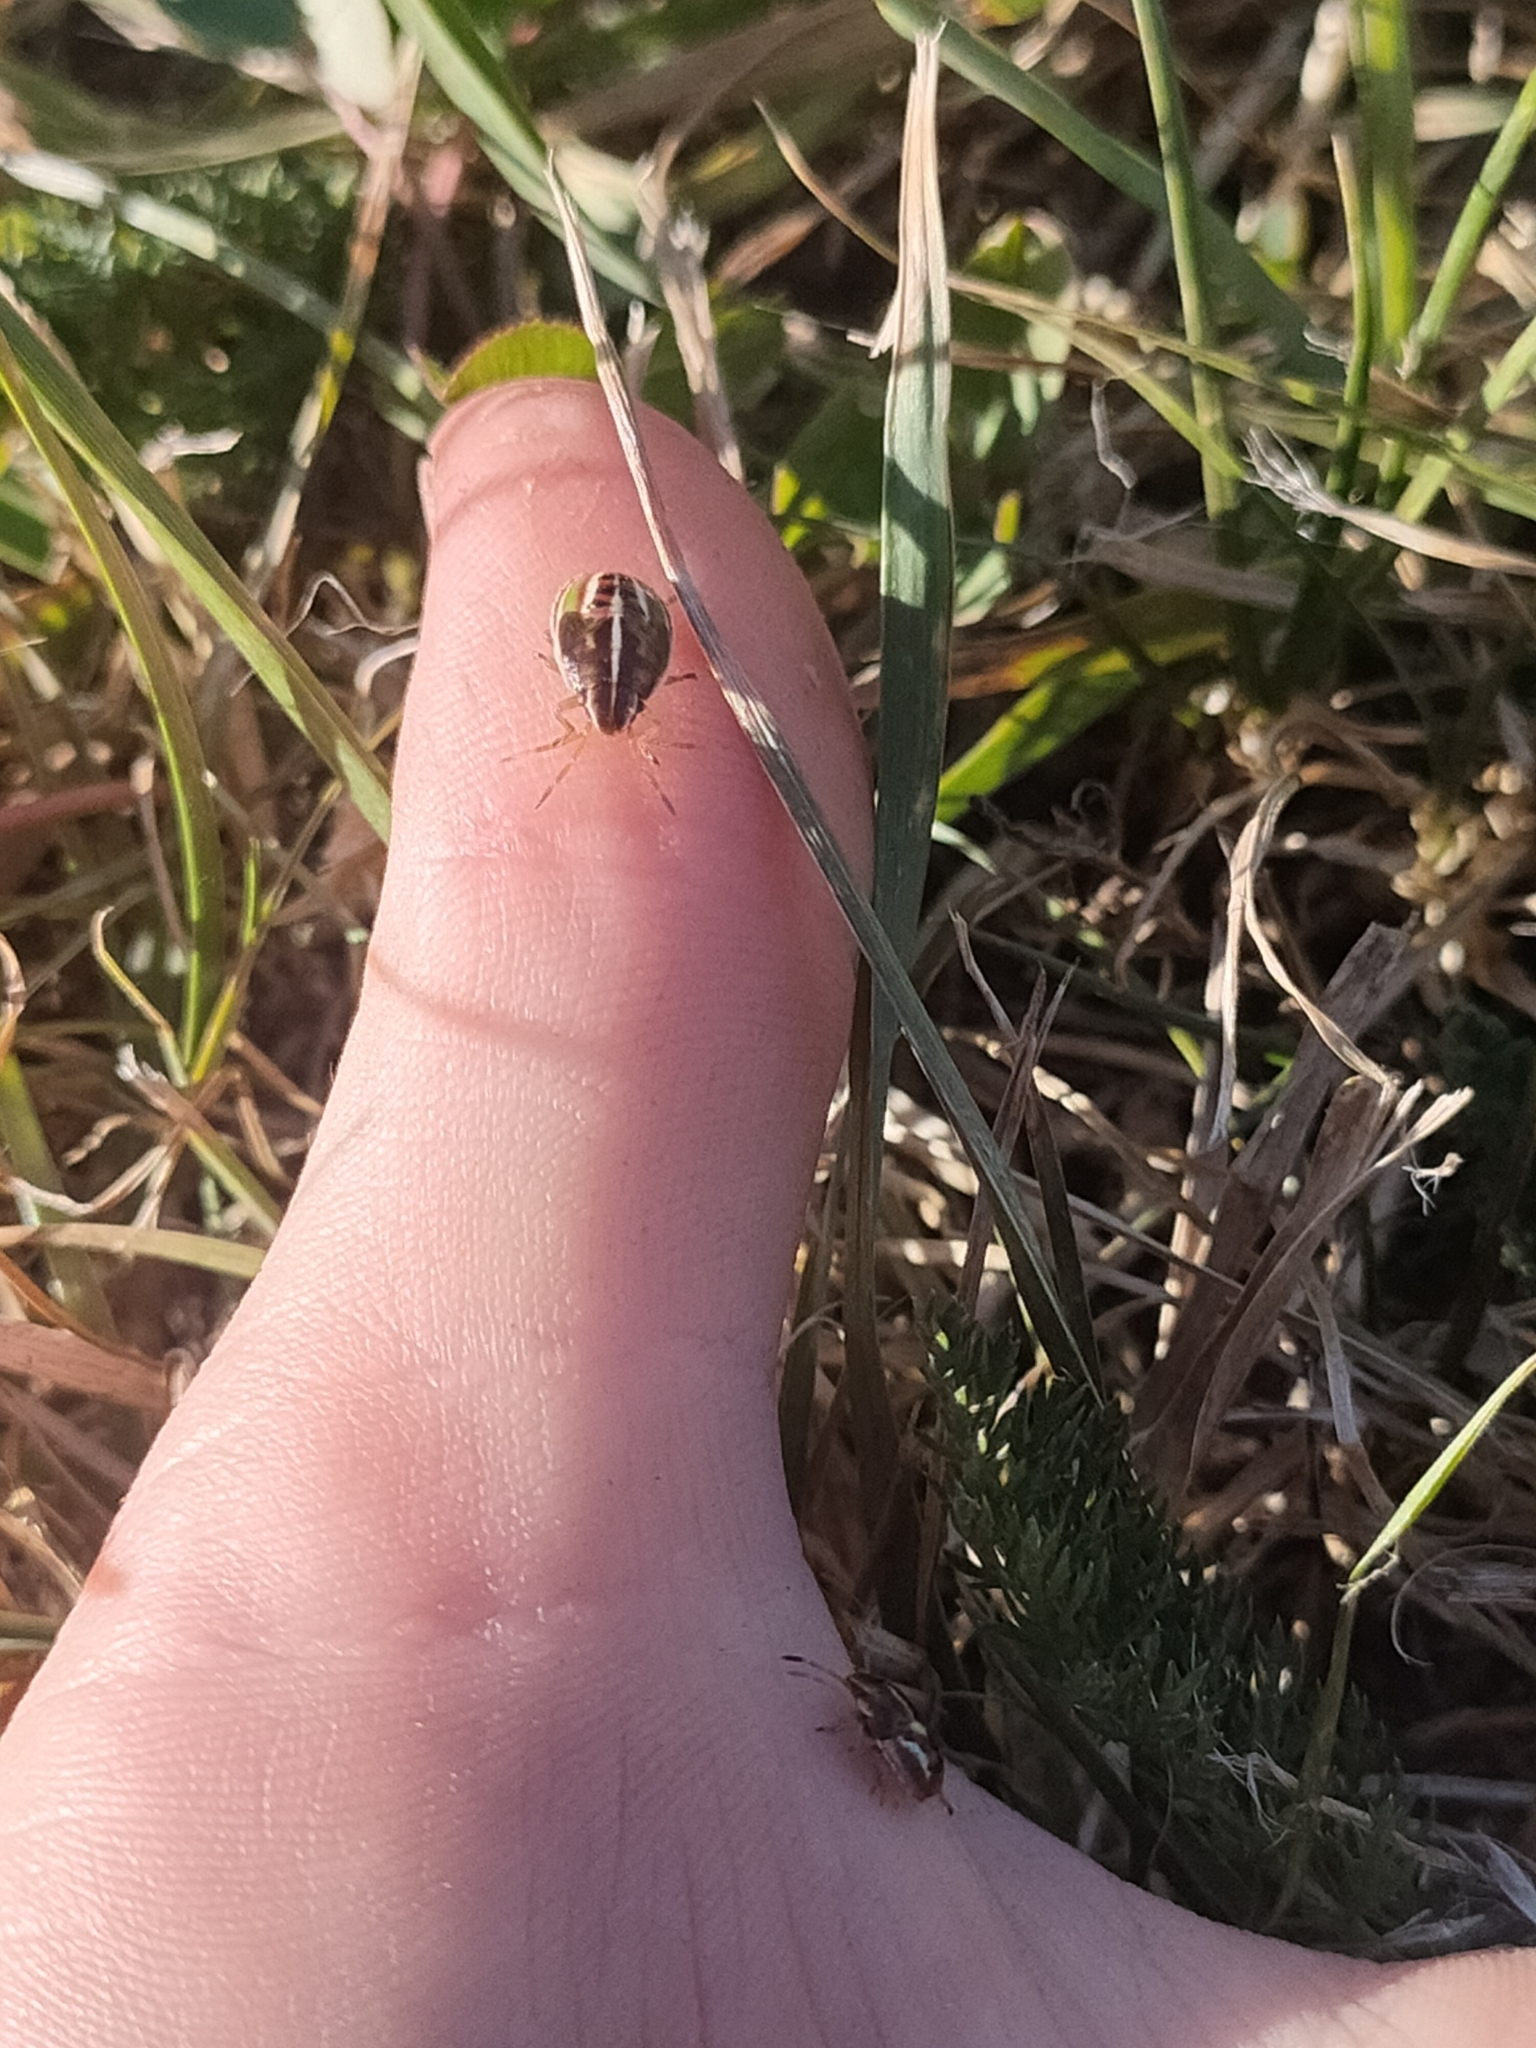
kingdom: Animalia
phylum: Arthropoda
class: Insecta
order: Hemiptera
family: Acanthosomatidae
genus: Rhopalimorpha
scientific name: Rhopalimorpha lineolaris
